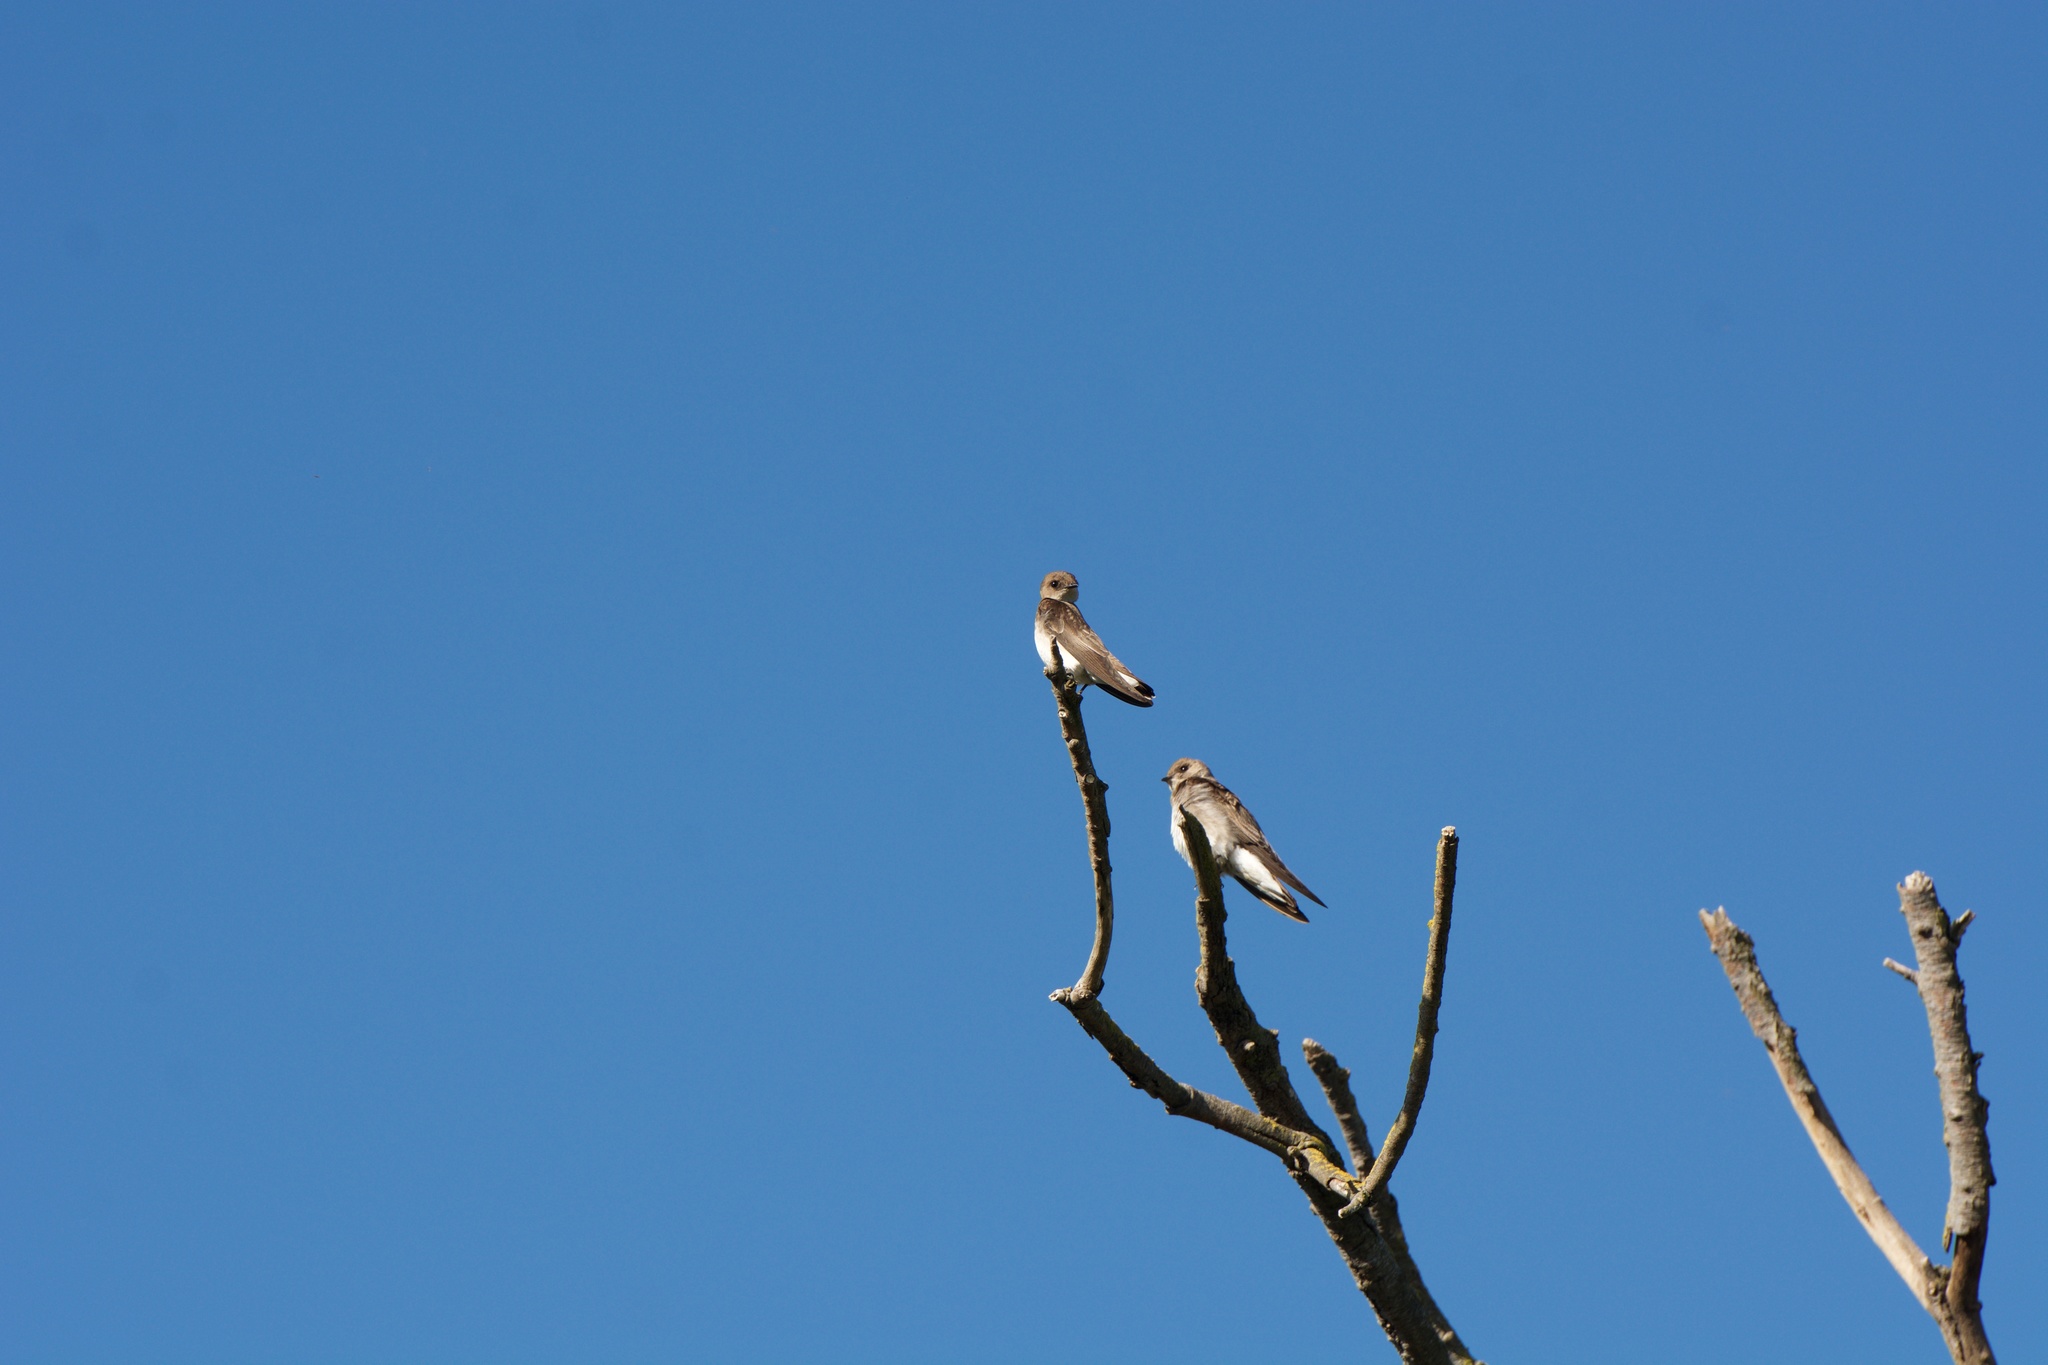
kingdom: Animalia
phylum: Chordata
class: Aves
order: Passeriformes
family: Hirundinidae
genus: Stelgidopteryx
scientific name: Stelgidopteryx serripennis
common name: Northern rough-winged swallow
